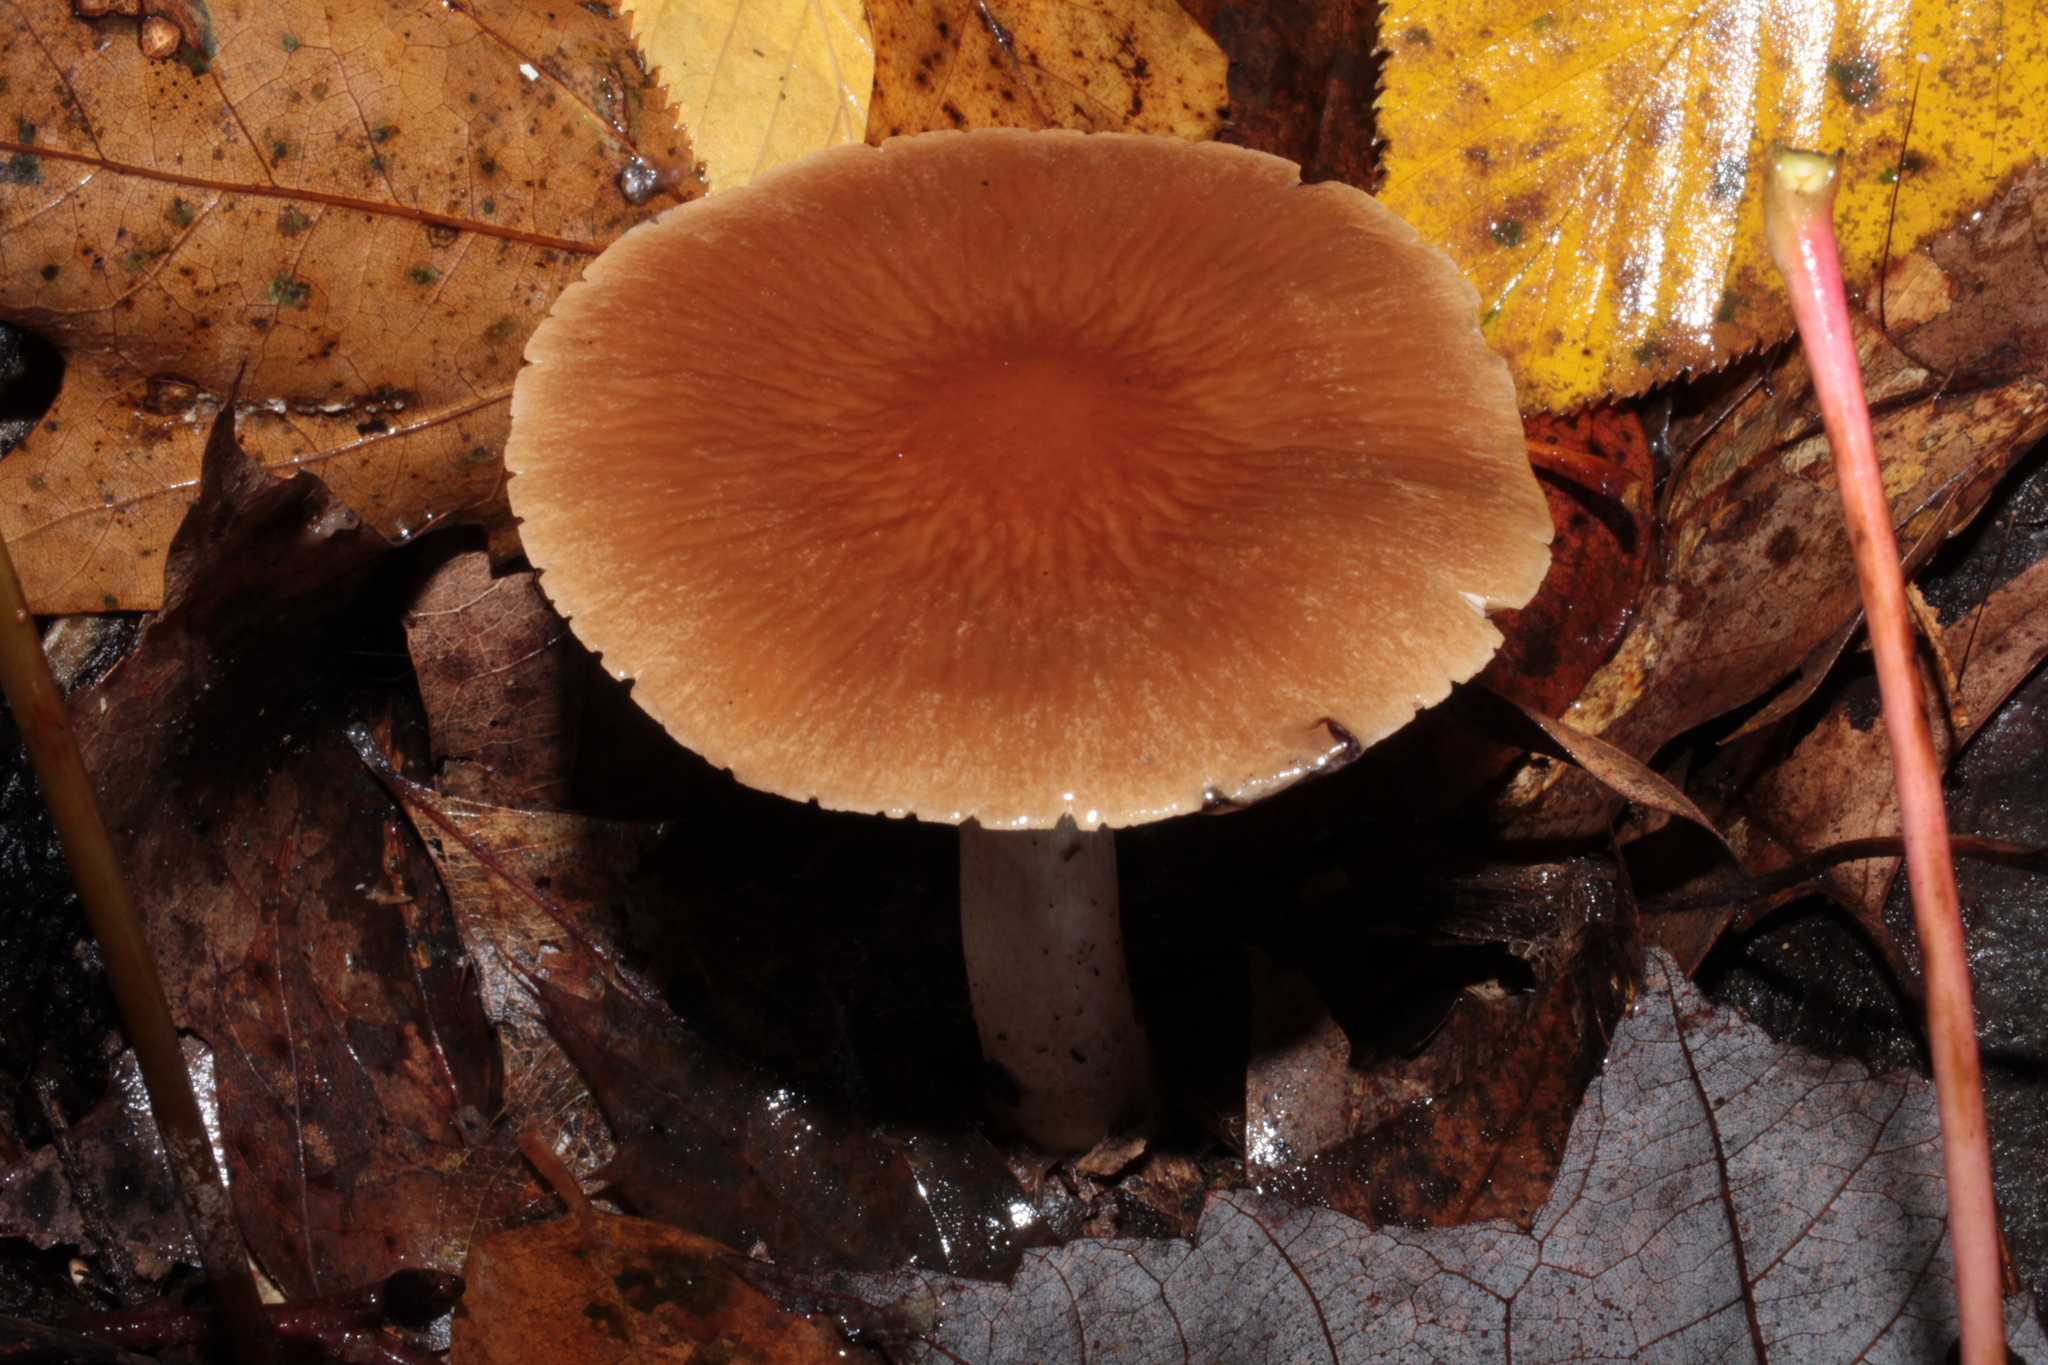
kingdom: Fungi
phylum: Basidiomycota
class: Agaricomycetes
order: Agaricales
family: Psathyrellaceae
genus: Typhrasa
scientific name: Typhrasa gossypina
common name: Wrinkled psathyrella
